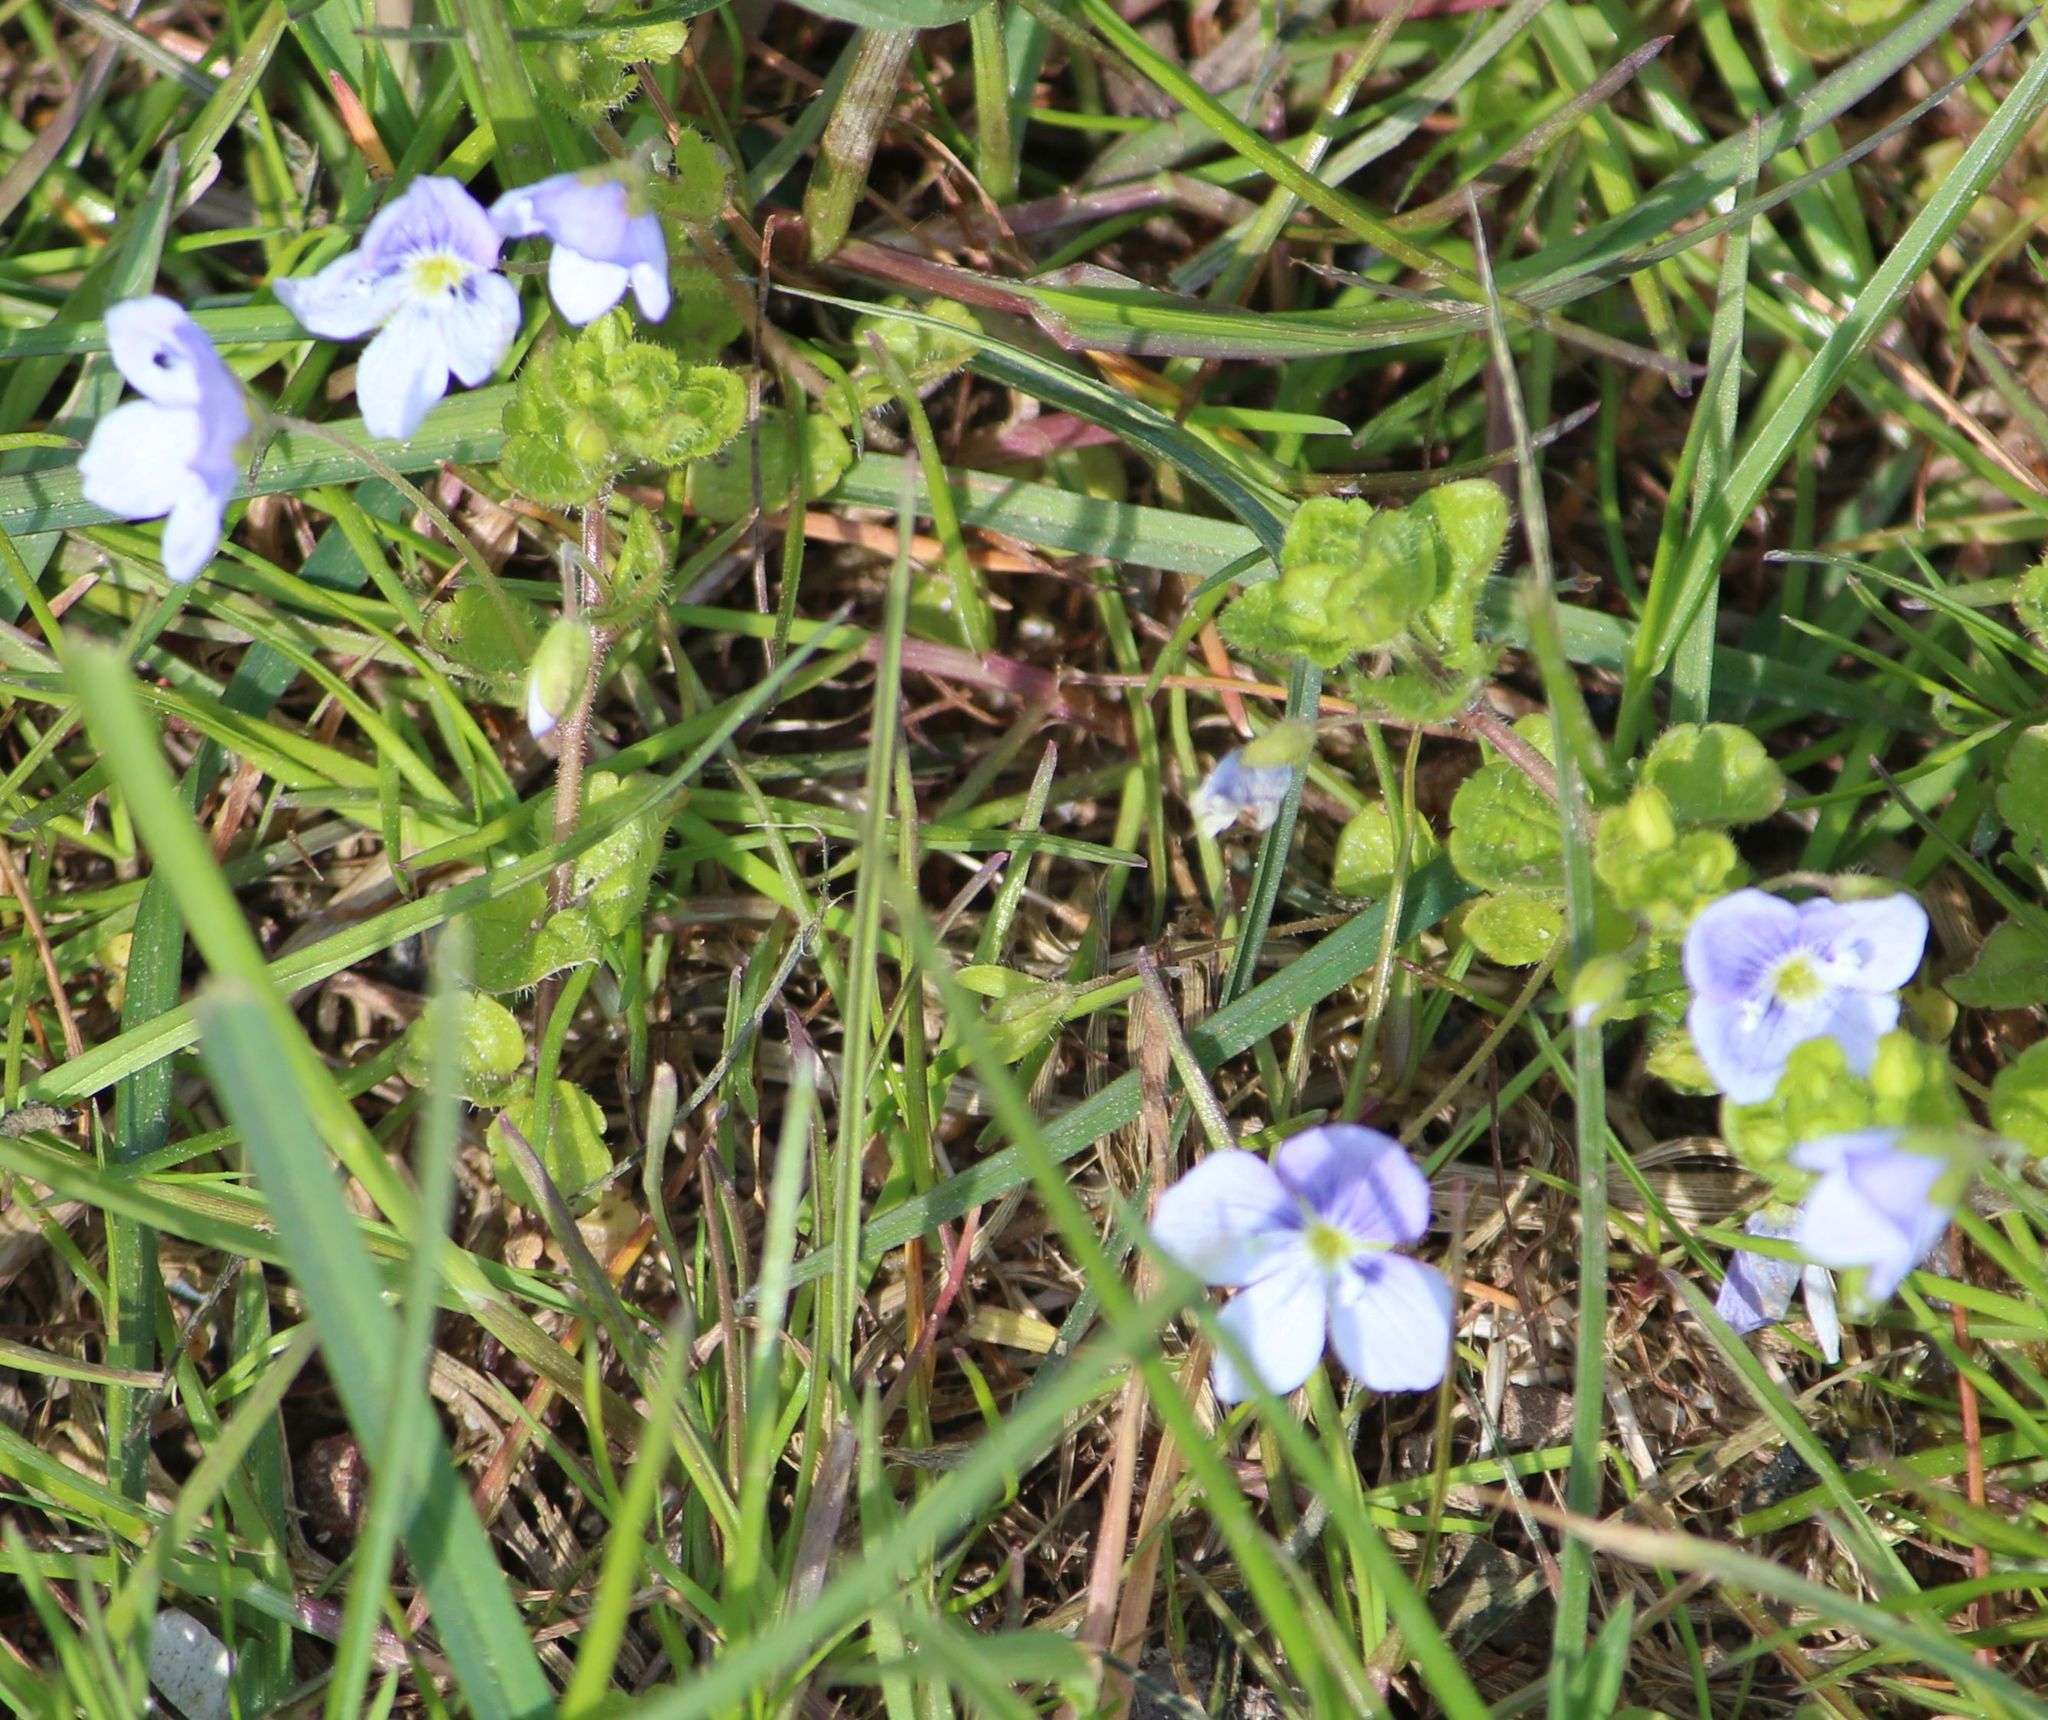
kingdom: Plantae
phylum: Tracheophyta
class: Magnoliopsida
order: Lamiales
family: Plantaginaceae
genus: Veronica
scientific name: Veronica filiformis
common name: Slender speedwell
